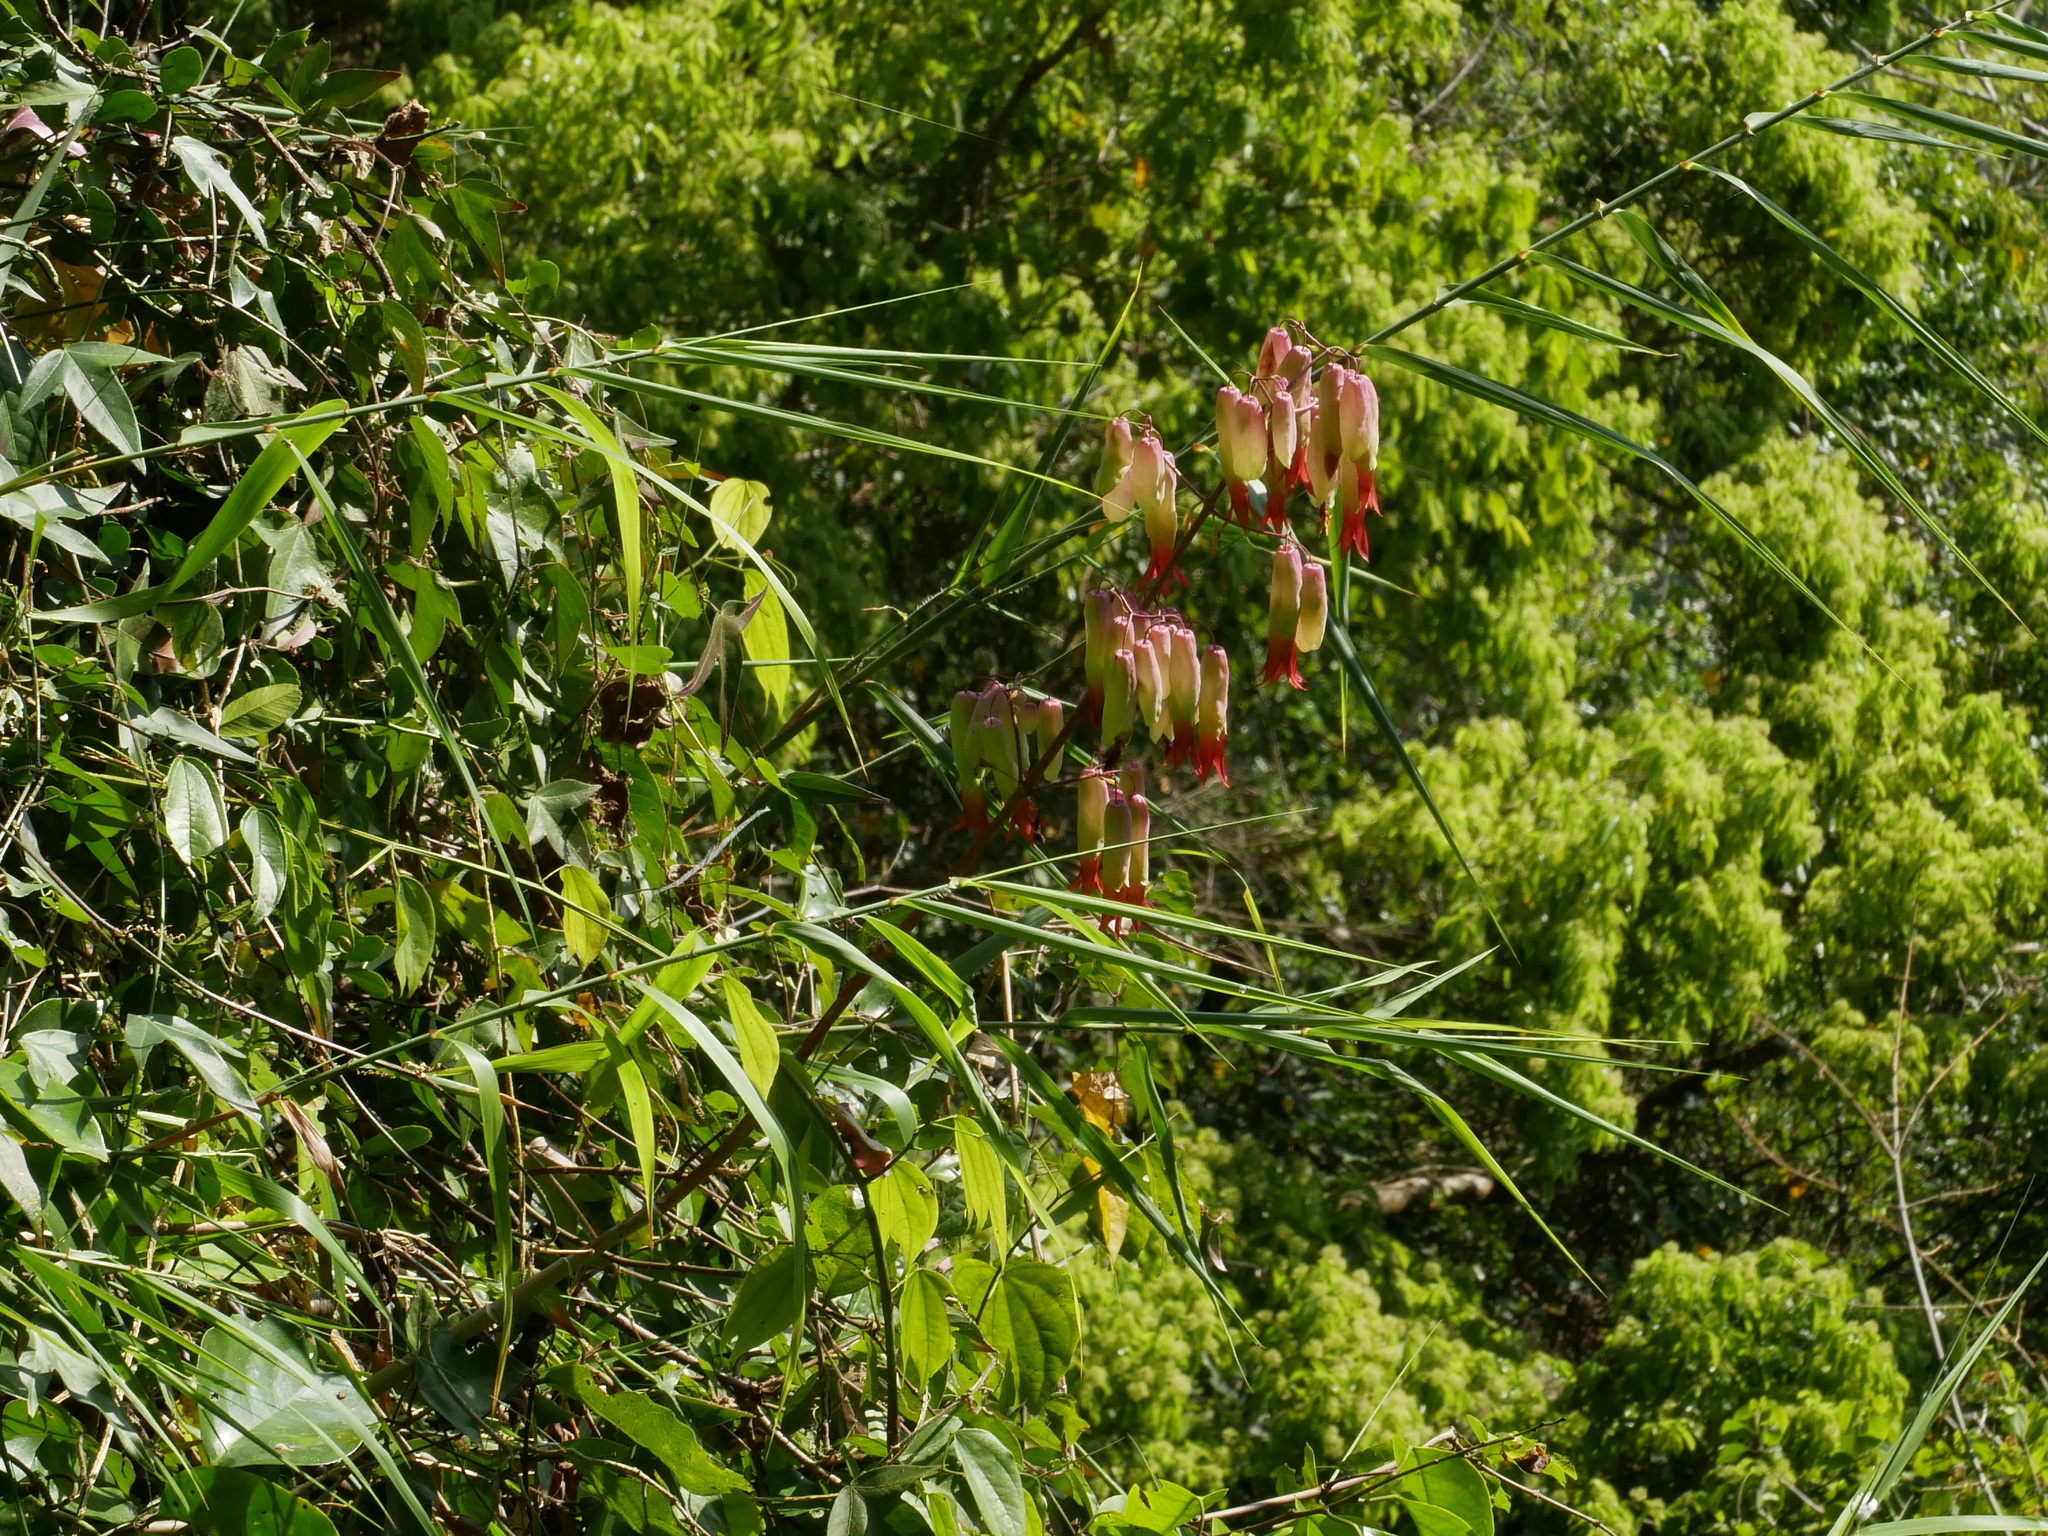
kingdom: Plantae
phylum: Tracheophyta
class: Magnoliopsida
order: Saxifragales
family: Crassulaceae
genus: Kalanchoe
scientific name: Kalanchoe pinnata
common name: Cathedral bells
